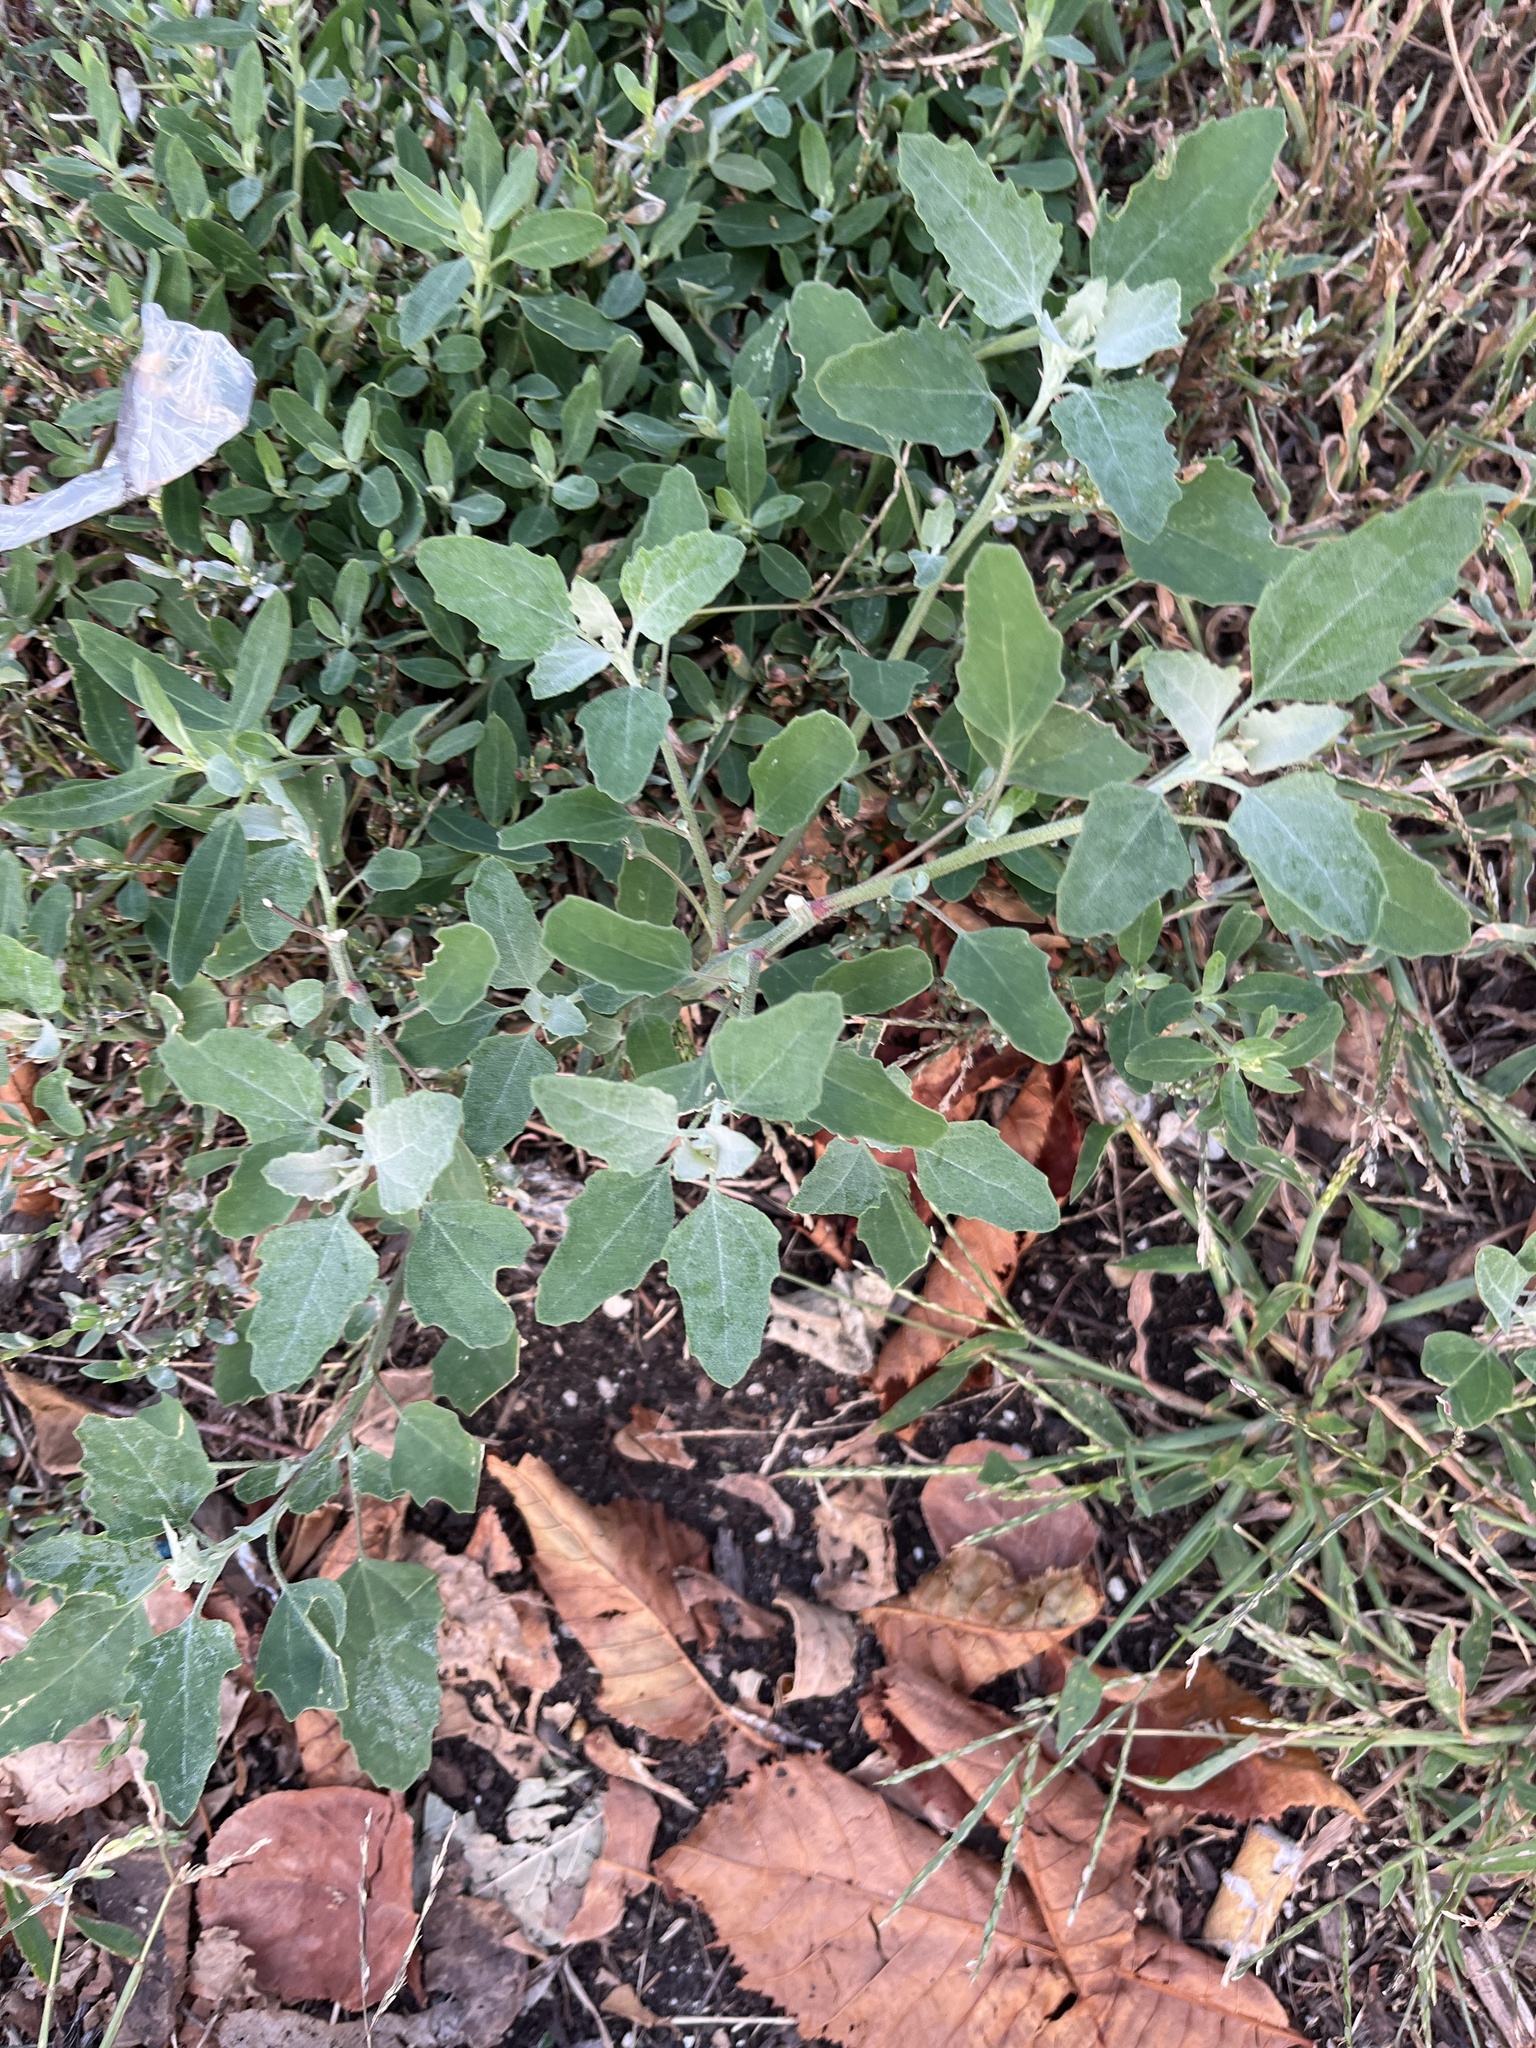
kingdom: Plantae
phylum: Tracheophyta
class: Magnoliopsida
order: Caryophyllales
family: Amaranthaceae
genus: Chenopodium
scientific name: Chenopodium album
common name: Fat-hen
